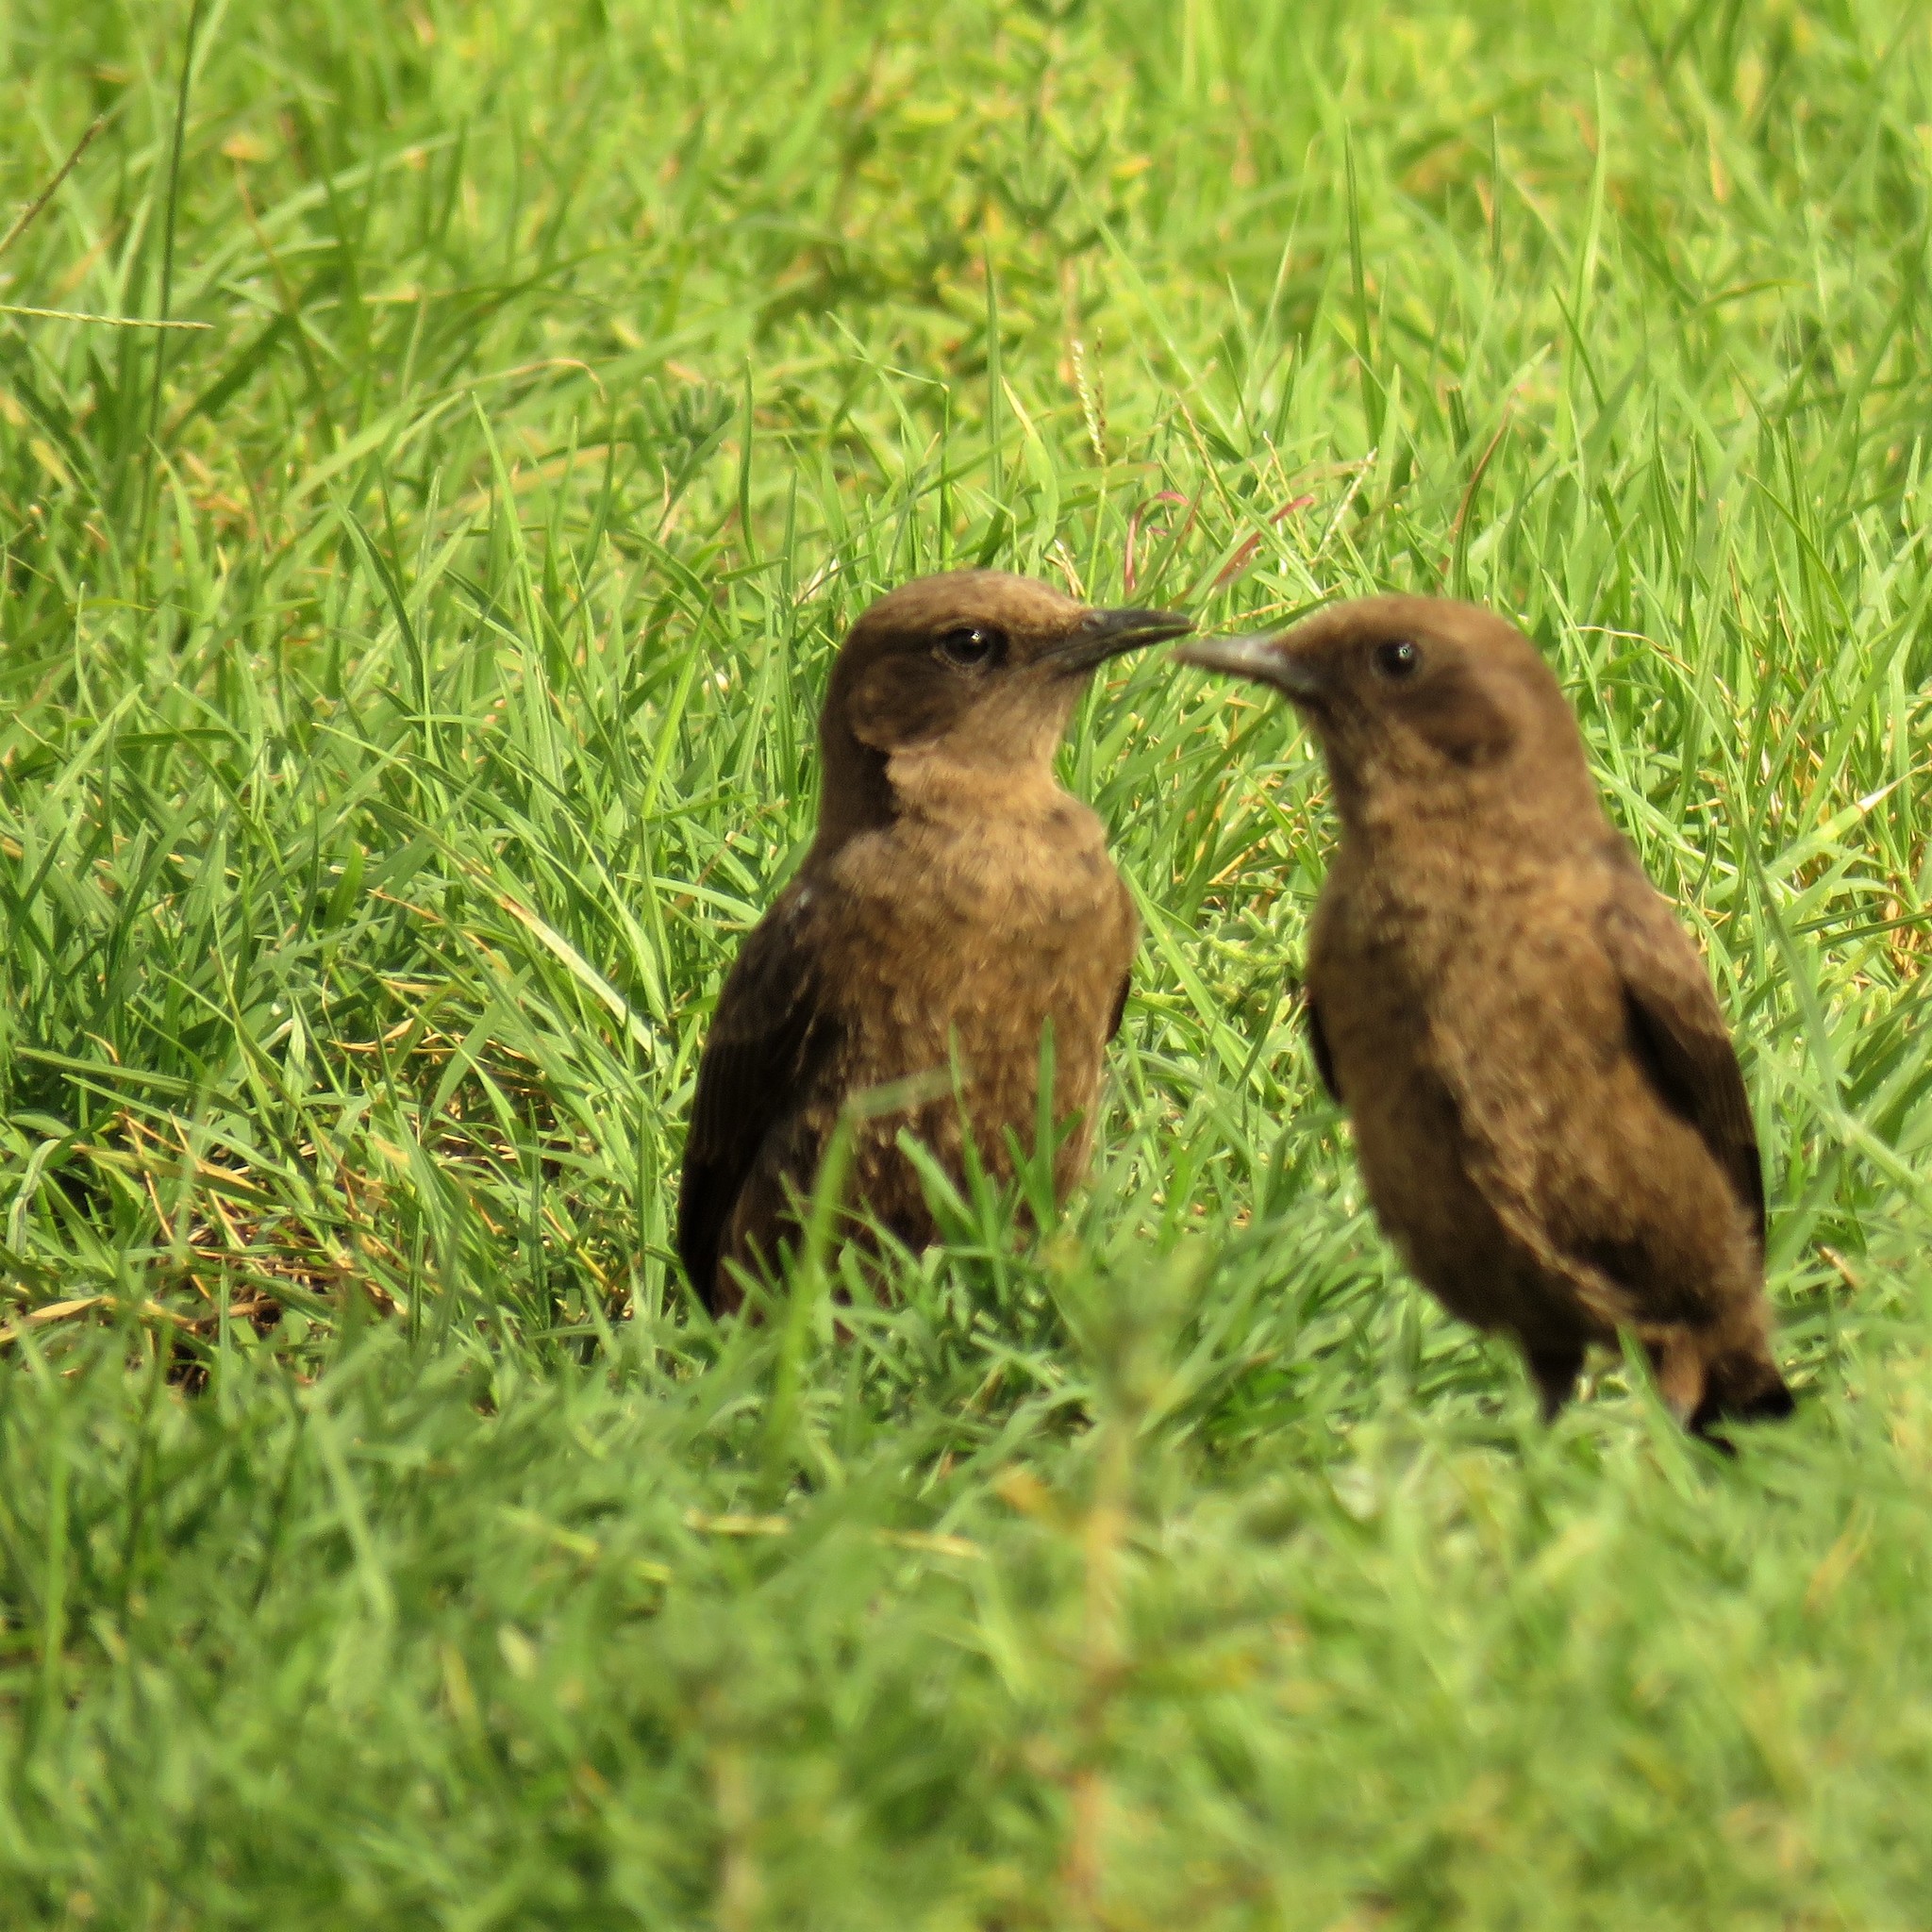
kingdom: Animalia
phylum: Chordata
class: Aves
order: Passeriformes
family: Muscicapidae
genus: Myrmecocichla
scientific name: Myrmecocichla formicivora
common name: Ant-eating chat
